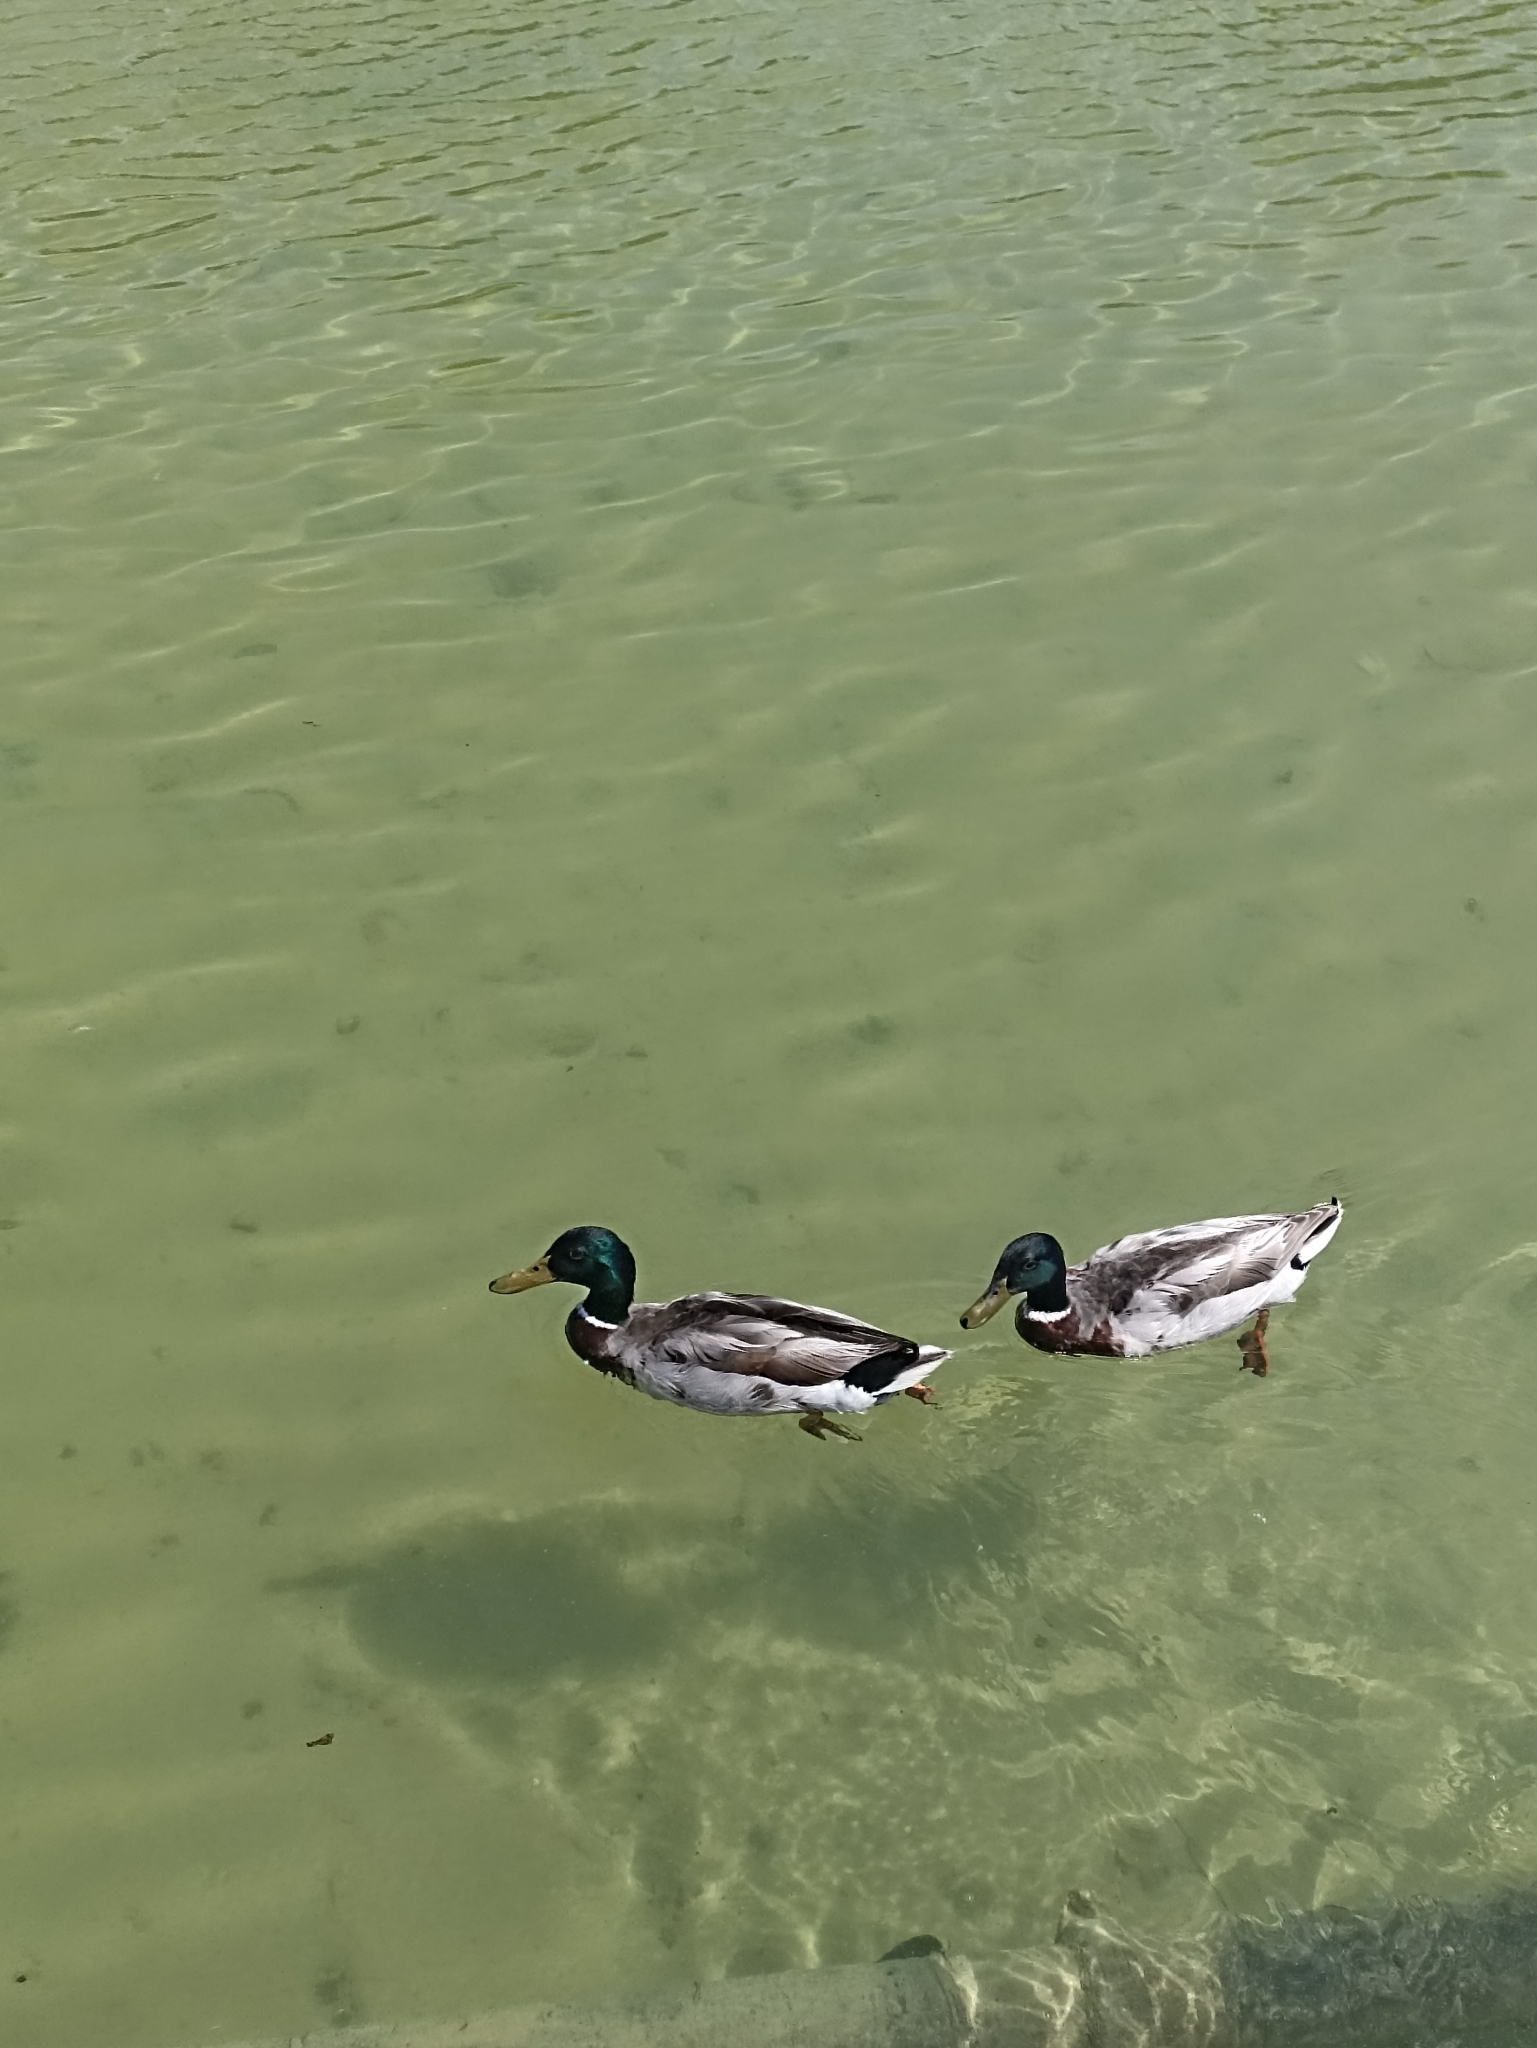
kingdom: Animalia
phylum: Chordata
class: Aves
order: Anseriformes
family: Anatidae
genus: Anas
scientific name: Anas platyrhynchos
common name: Mallard
